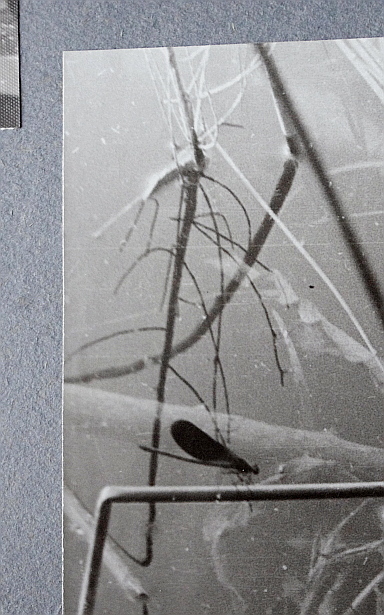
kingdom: Plantae
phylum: Tracheophyta
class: Polypodiopsida
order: Equisetales
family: Equisetaceae
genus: Equisetum
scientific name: Equisetum fluviatile
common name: Water horsetail
